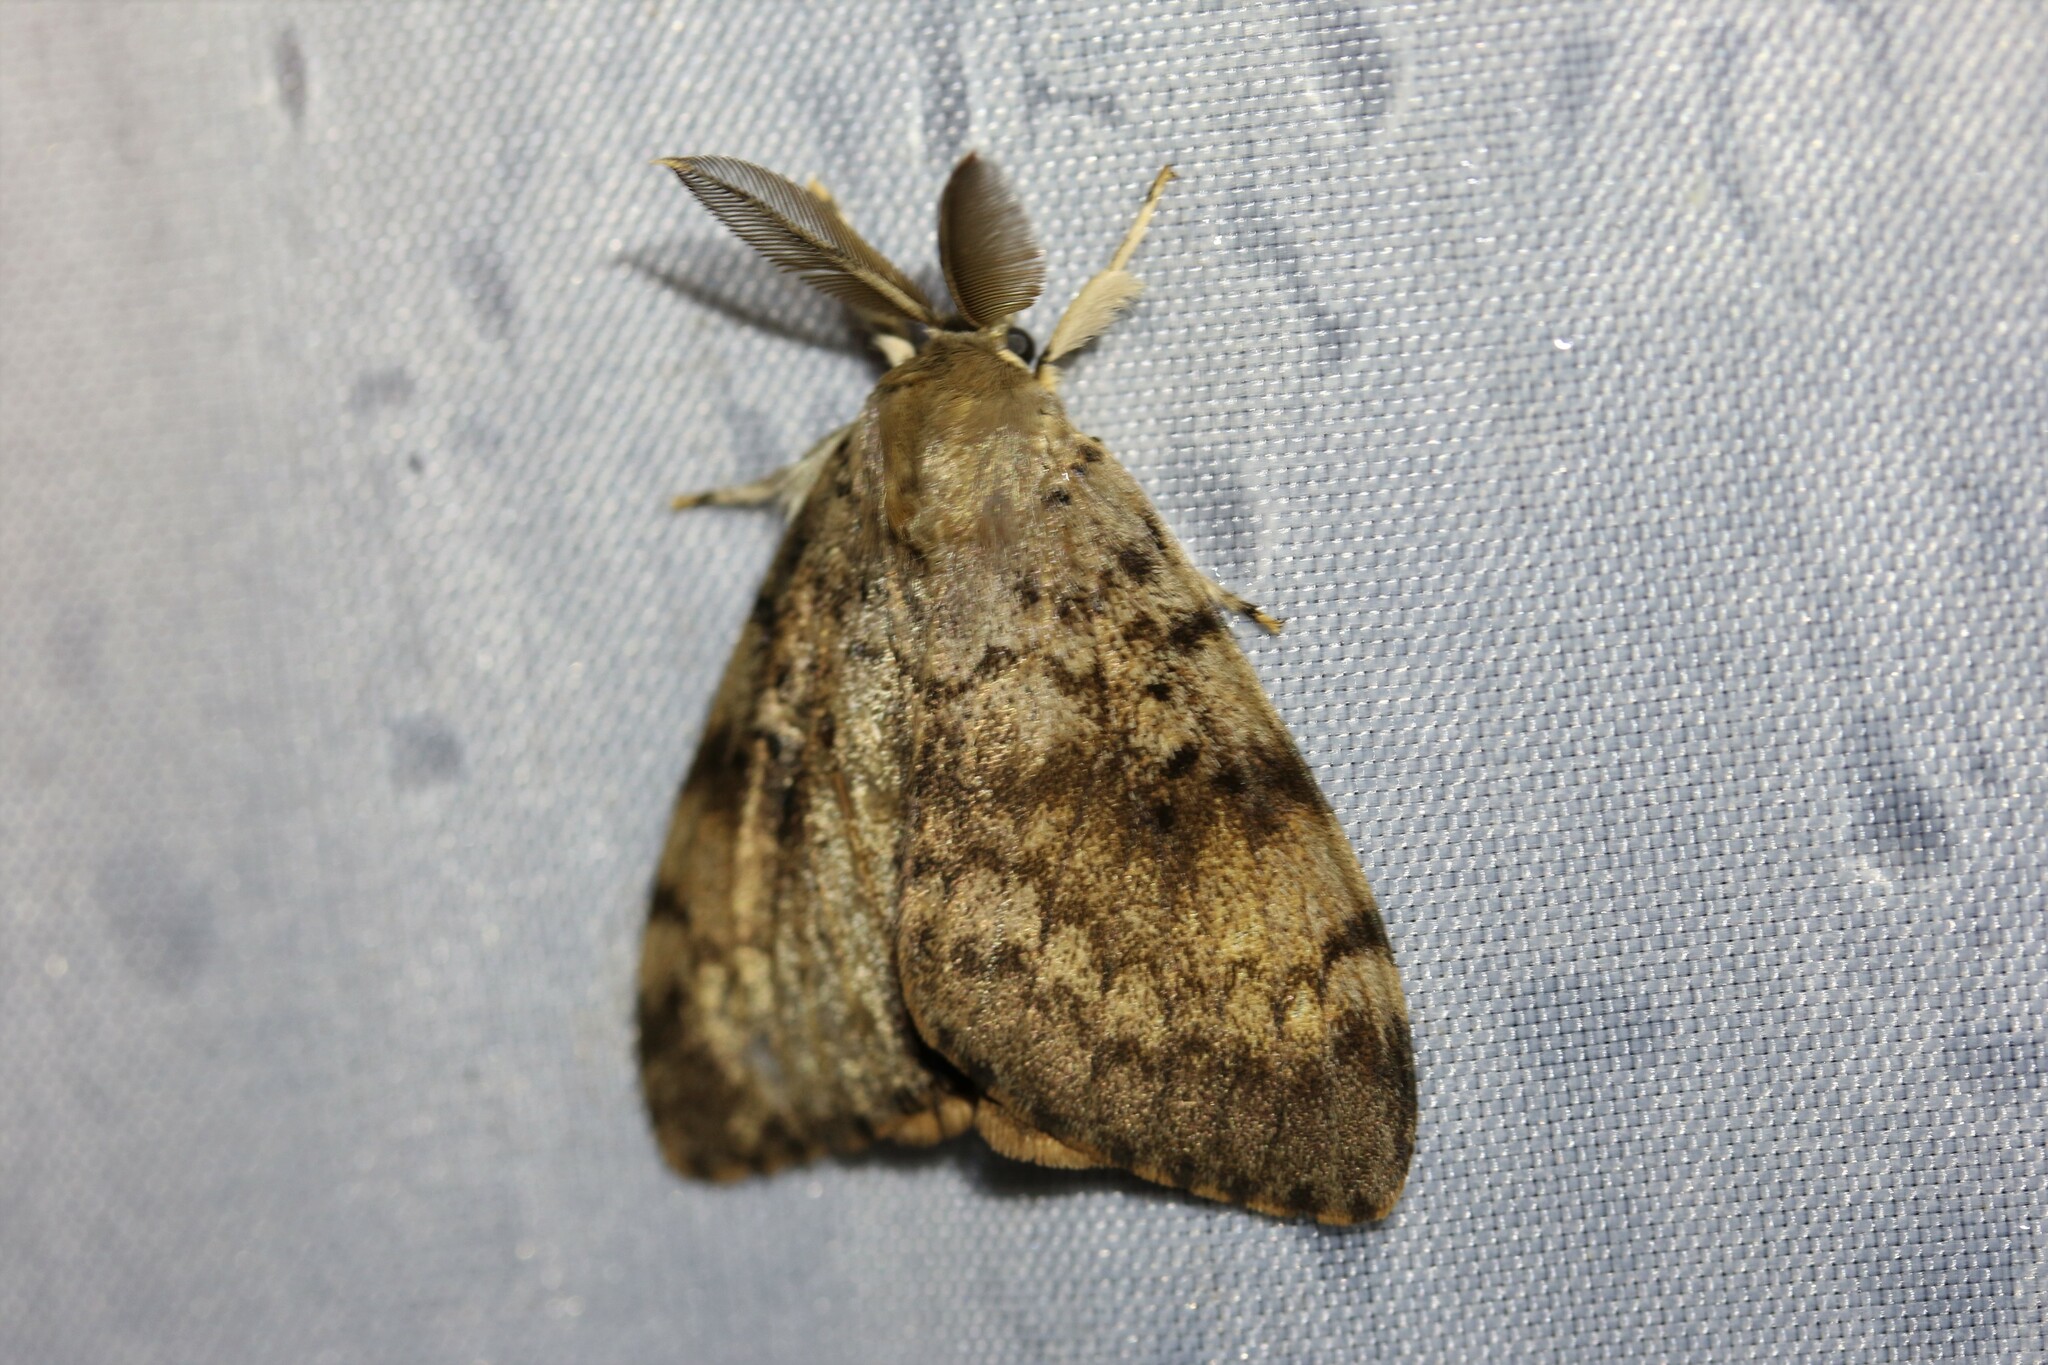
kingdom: Animalia
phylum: Arthropoda
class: Insecta
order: Lepidoptera
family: Erebidae
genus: Lymantria
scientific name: Lymantria dispar
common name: Gypsy moth
